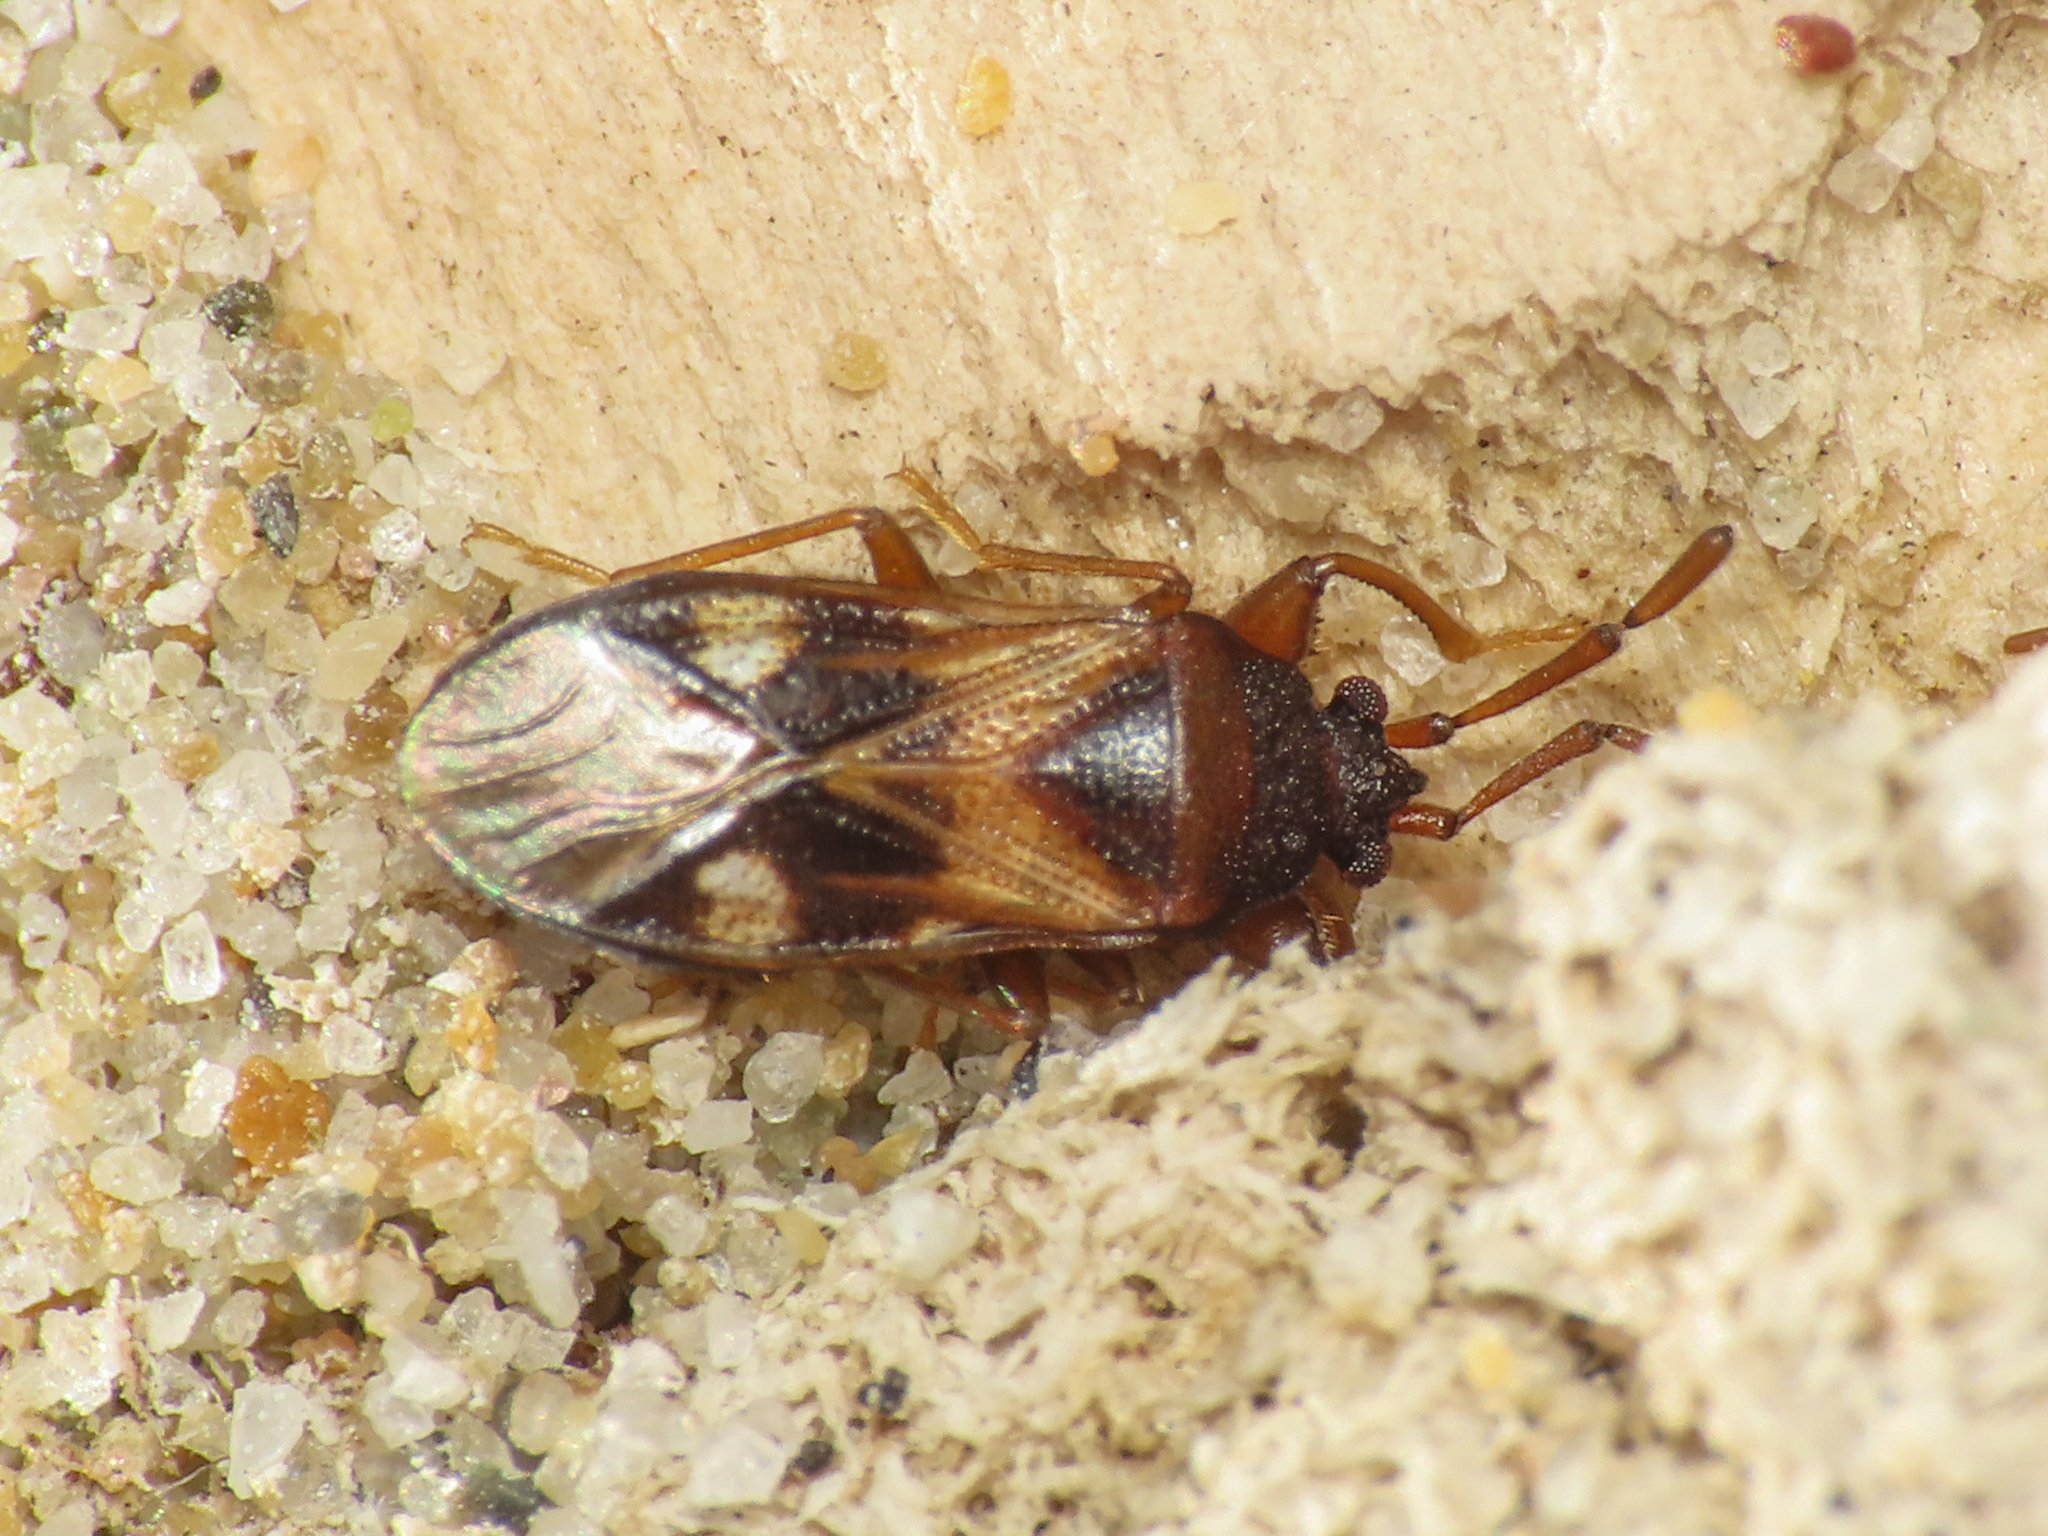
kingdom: Animalia
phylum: Arthropoda
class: Insecta
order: Hemiptera
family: Rhyparochromidae
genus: Tempyra
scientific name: Tempyra biguttula
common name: Seed bug
